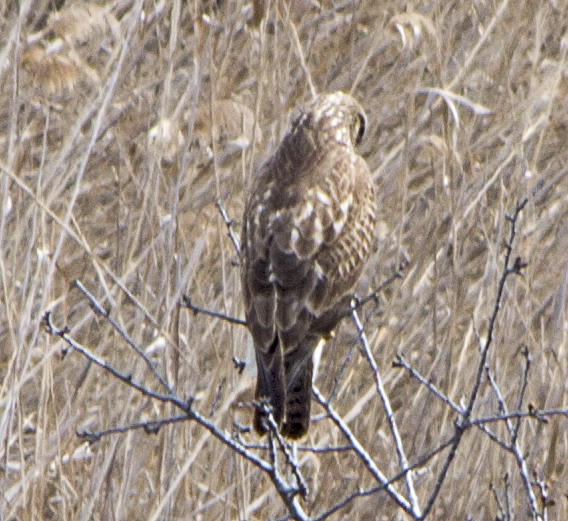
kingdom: Animalia
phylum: Chordata
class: Aves
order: Accipitriformes
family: Accipitridae
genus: Buteo
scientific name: Buteo buteo
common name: Common buzzard
